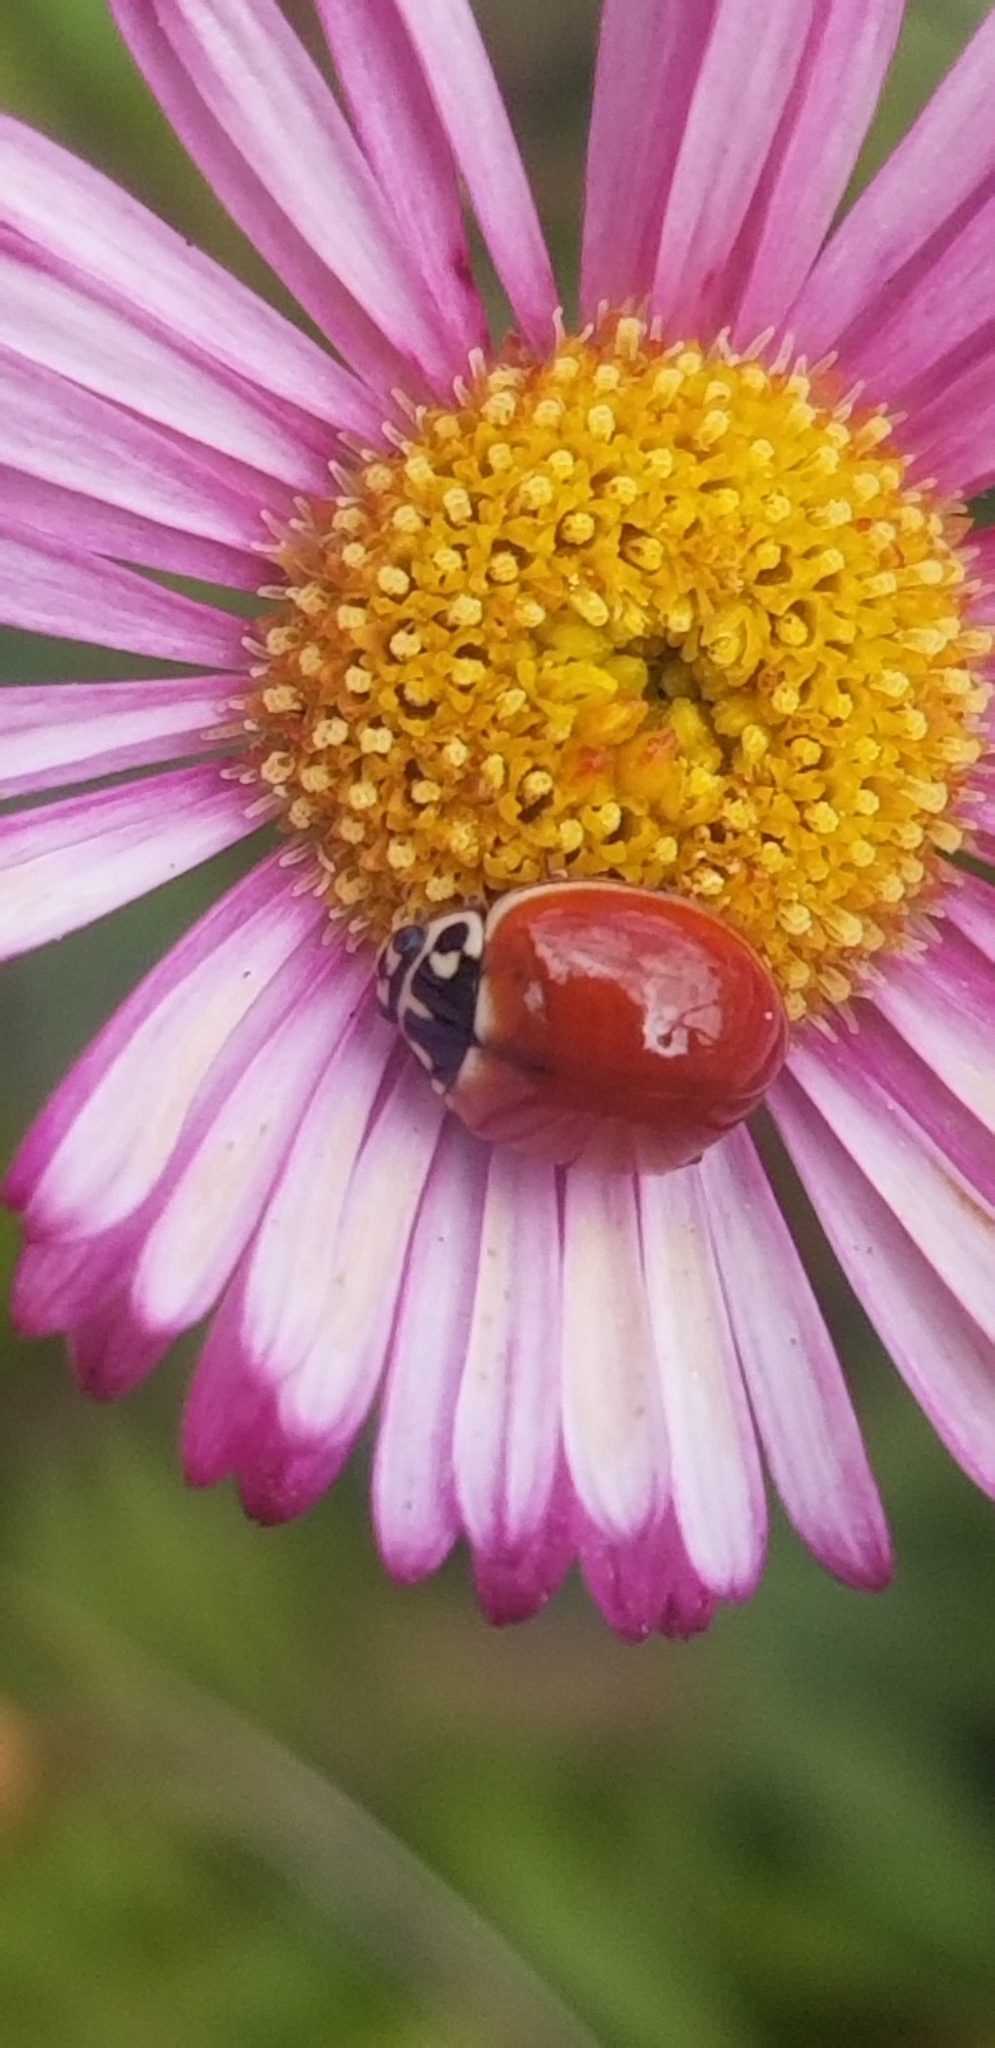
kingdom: Animalia
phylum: Arthropoda
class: Insecta
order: Coleoptera
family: Coccinellidae
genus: Cycloneda
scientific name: Cycloneda polita
